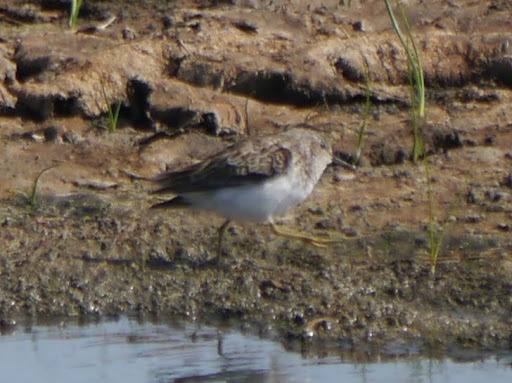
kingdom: Animalia
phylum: Chordata
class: Aves
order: Charadriiformes
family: Scolopacidae
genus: Calidris
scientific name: Calidris minutilla
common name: Least sandpiper
